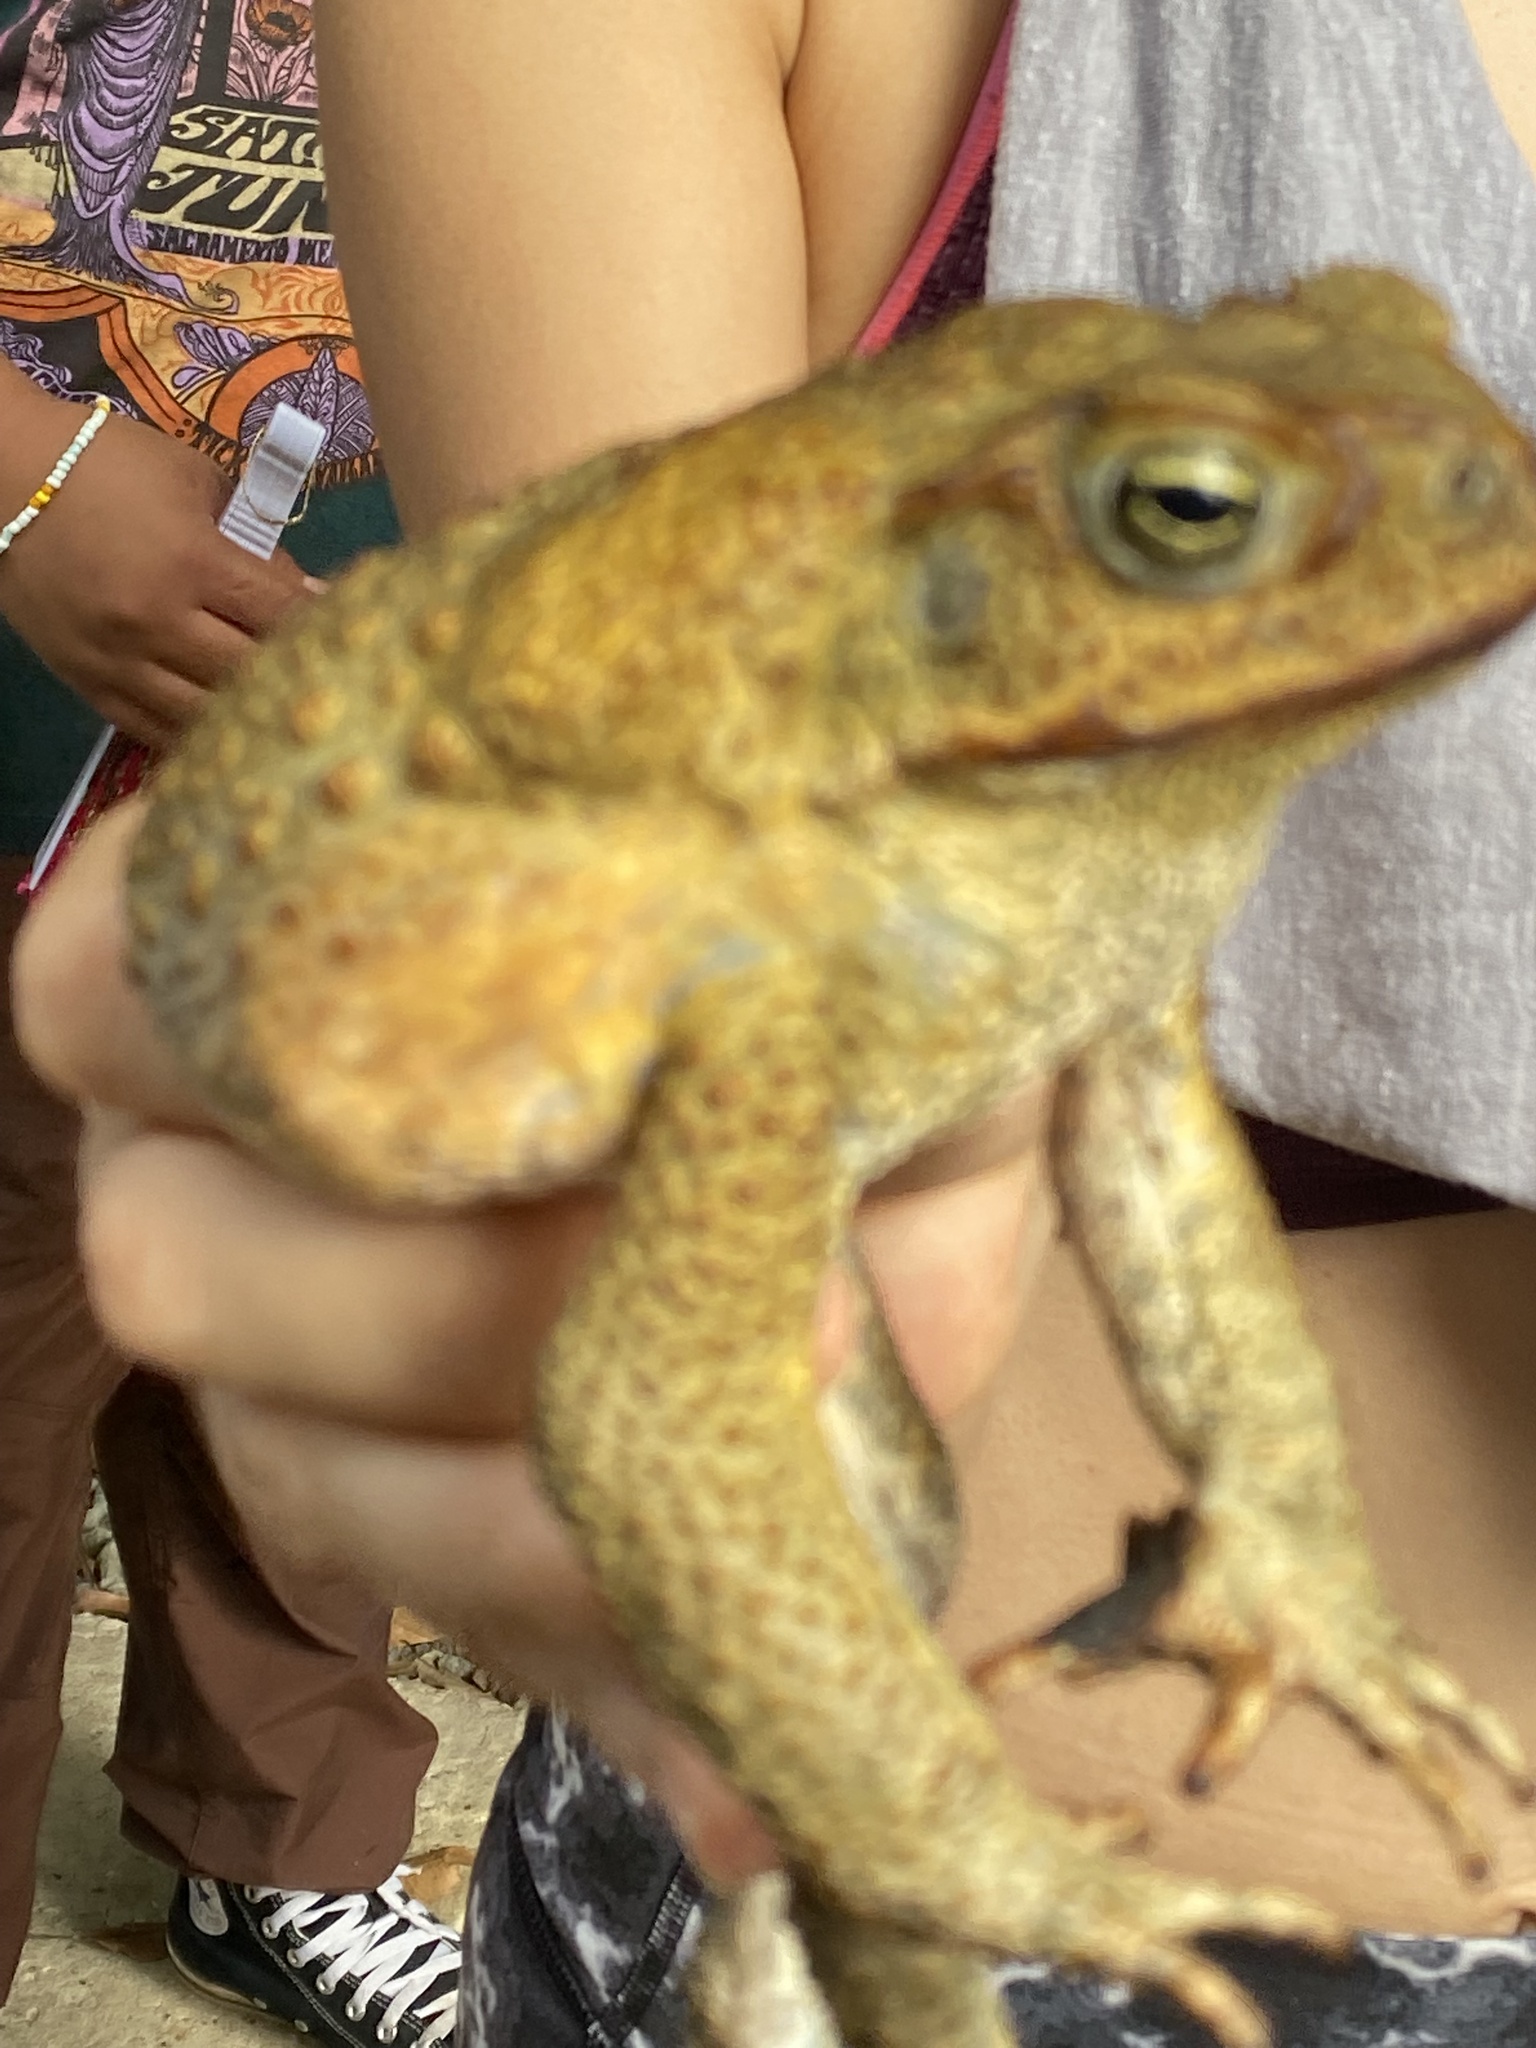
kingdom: Animalia
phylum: Chordata
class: Amphibia
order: Anura
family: Bufonidae
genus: Rhinella
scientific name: Rhinella marina
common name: Cane toad
